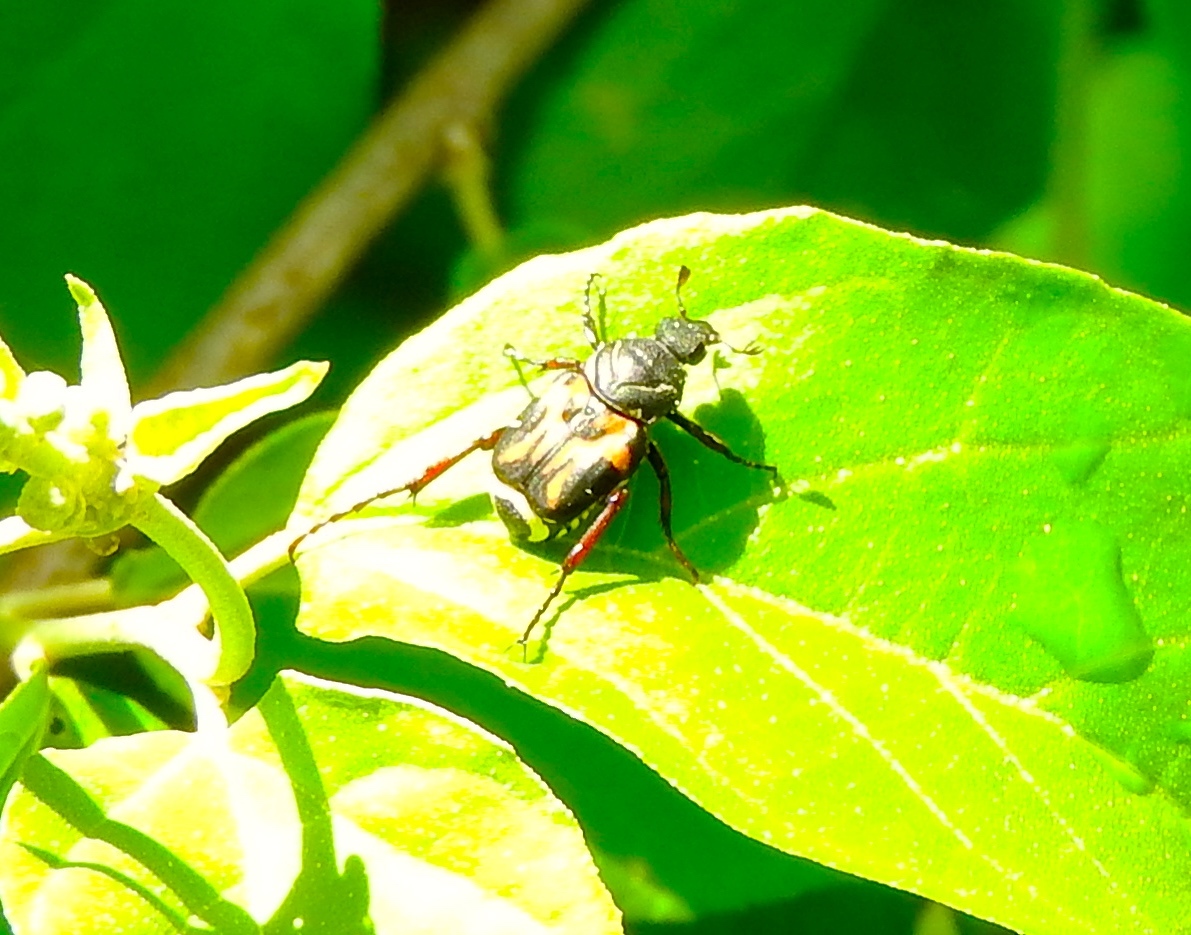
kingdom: Animalia
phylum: Arthropoda
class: Insecta
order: Coleoptera
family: Scarabaeidae
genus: Trigonopeltastes
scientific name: Trigonopeltastes
